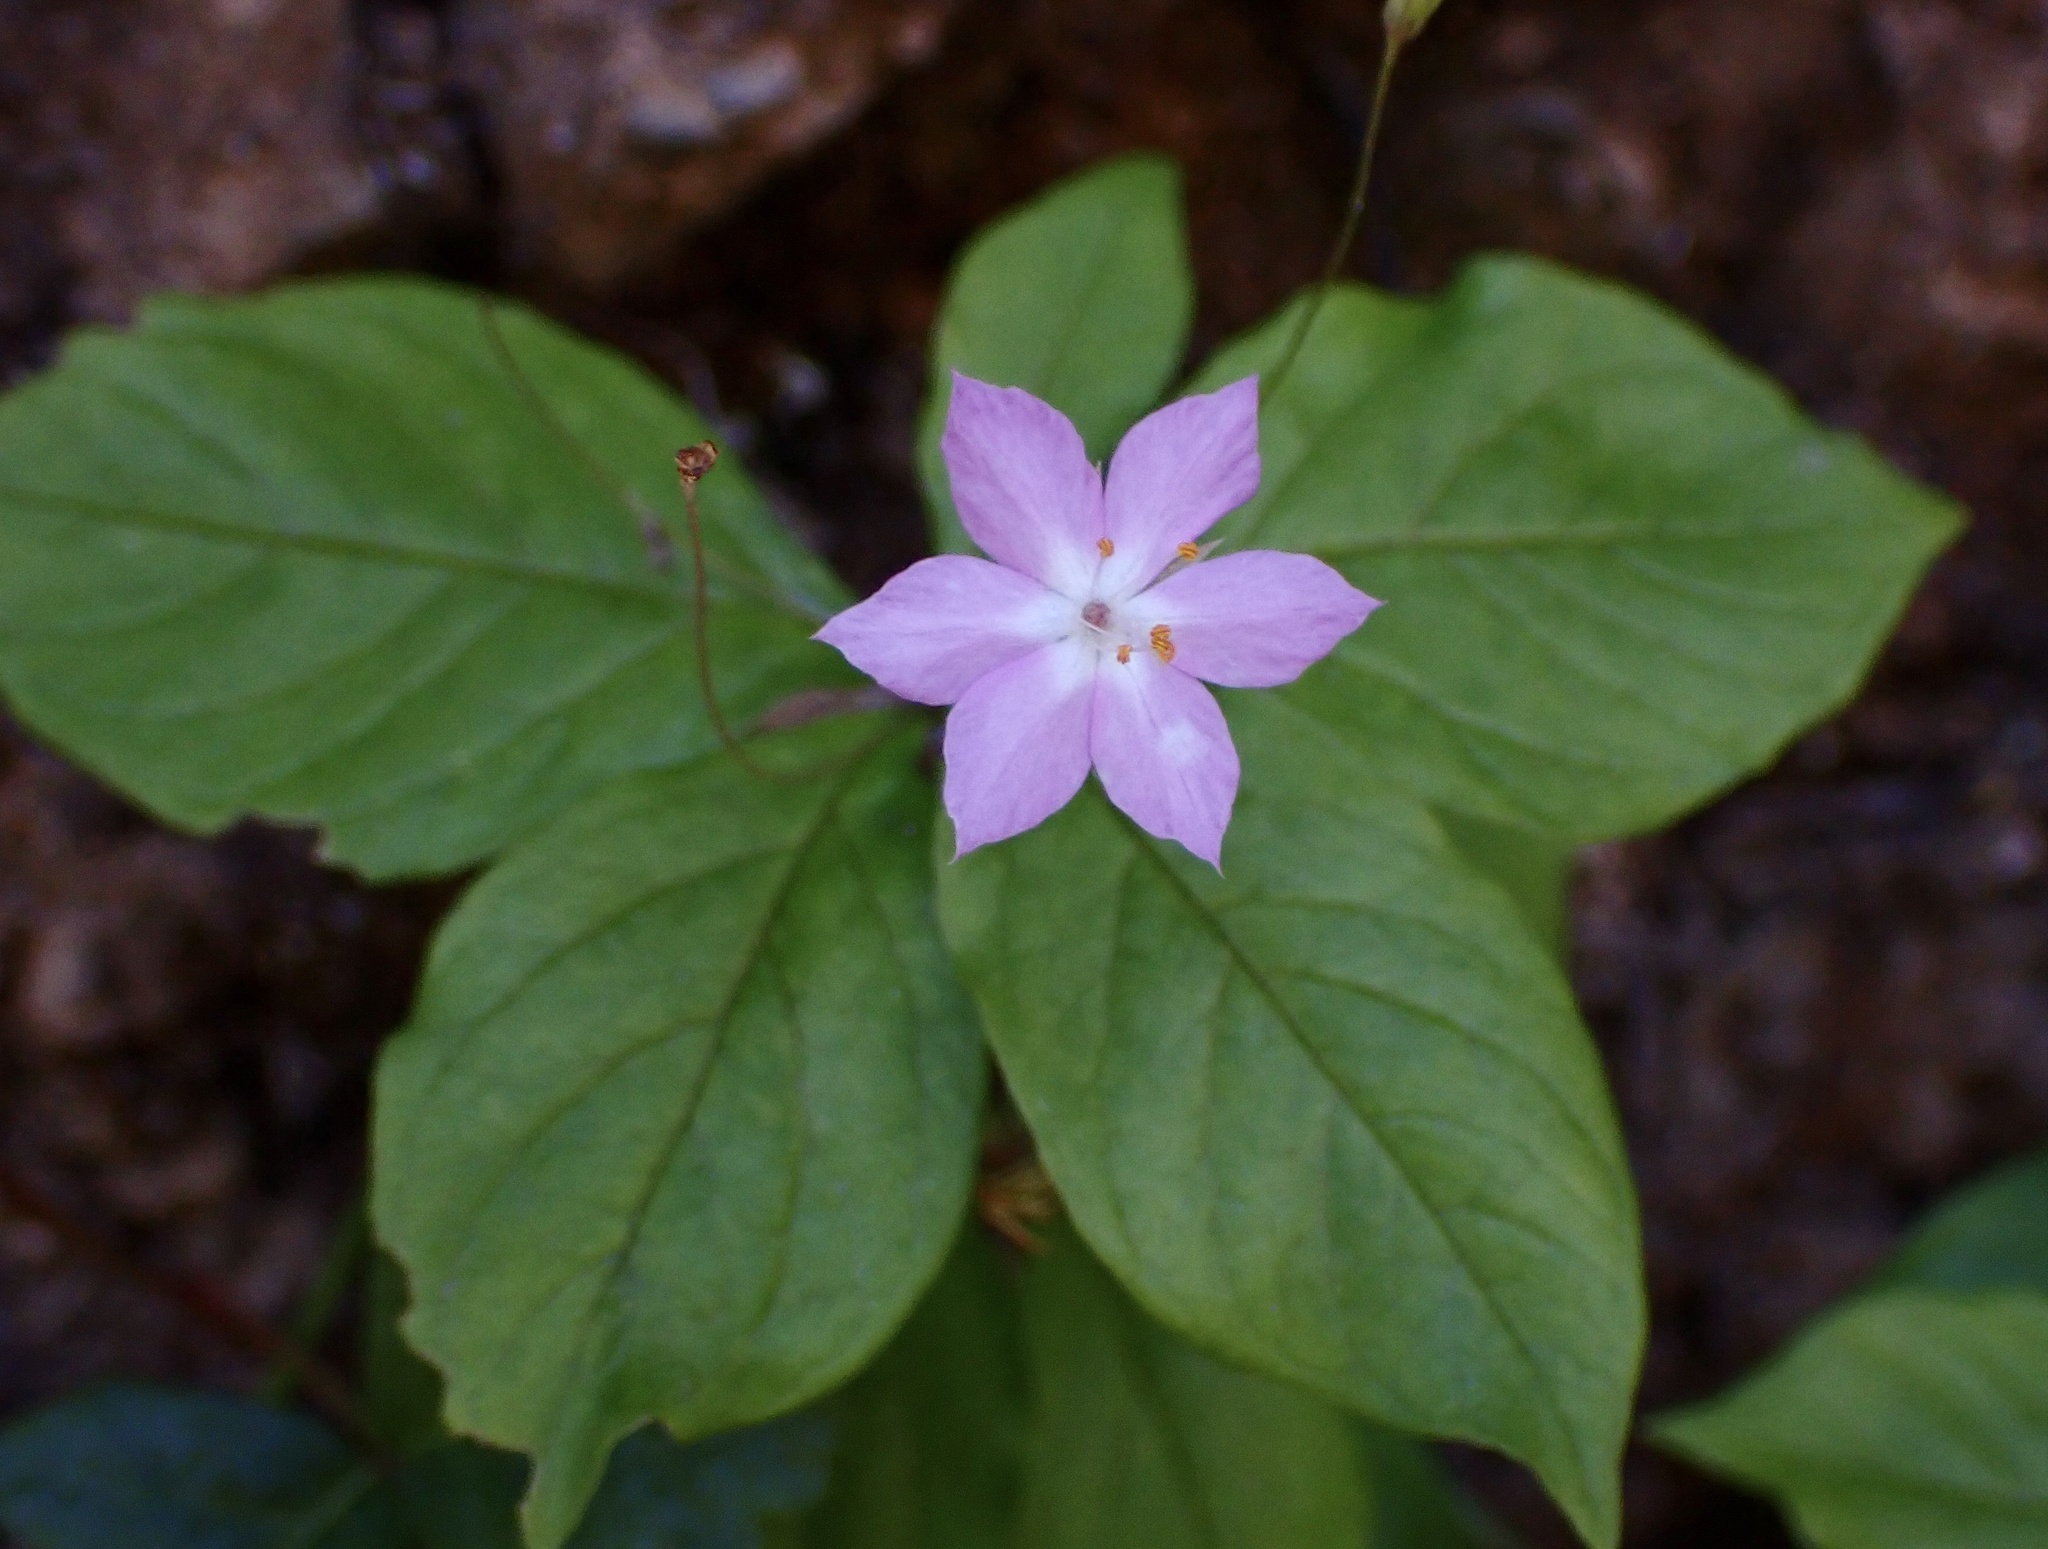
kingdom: Plantae
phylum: Tracheophyta
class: Magnoliopsida
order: Ericales
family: Primulaceae
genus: Lysimachia
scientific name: Lysimachia latifolia
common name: Pacific starflower
